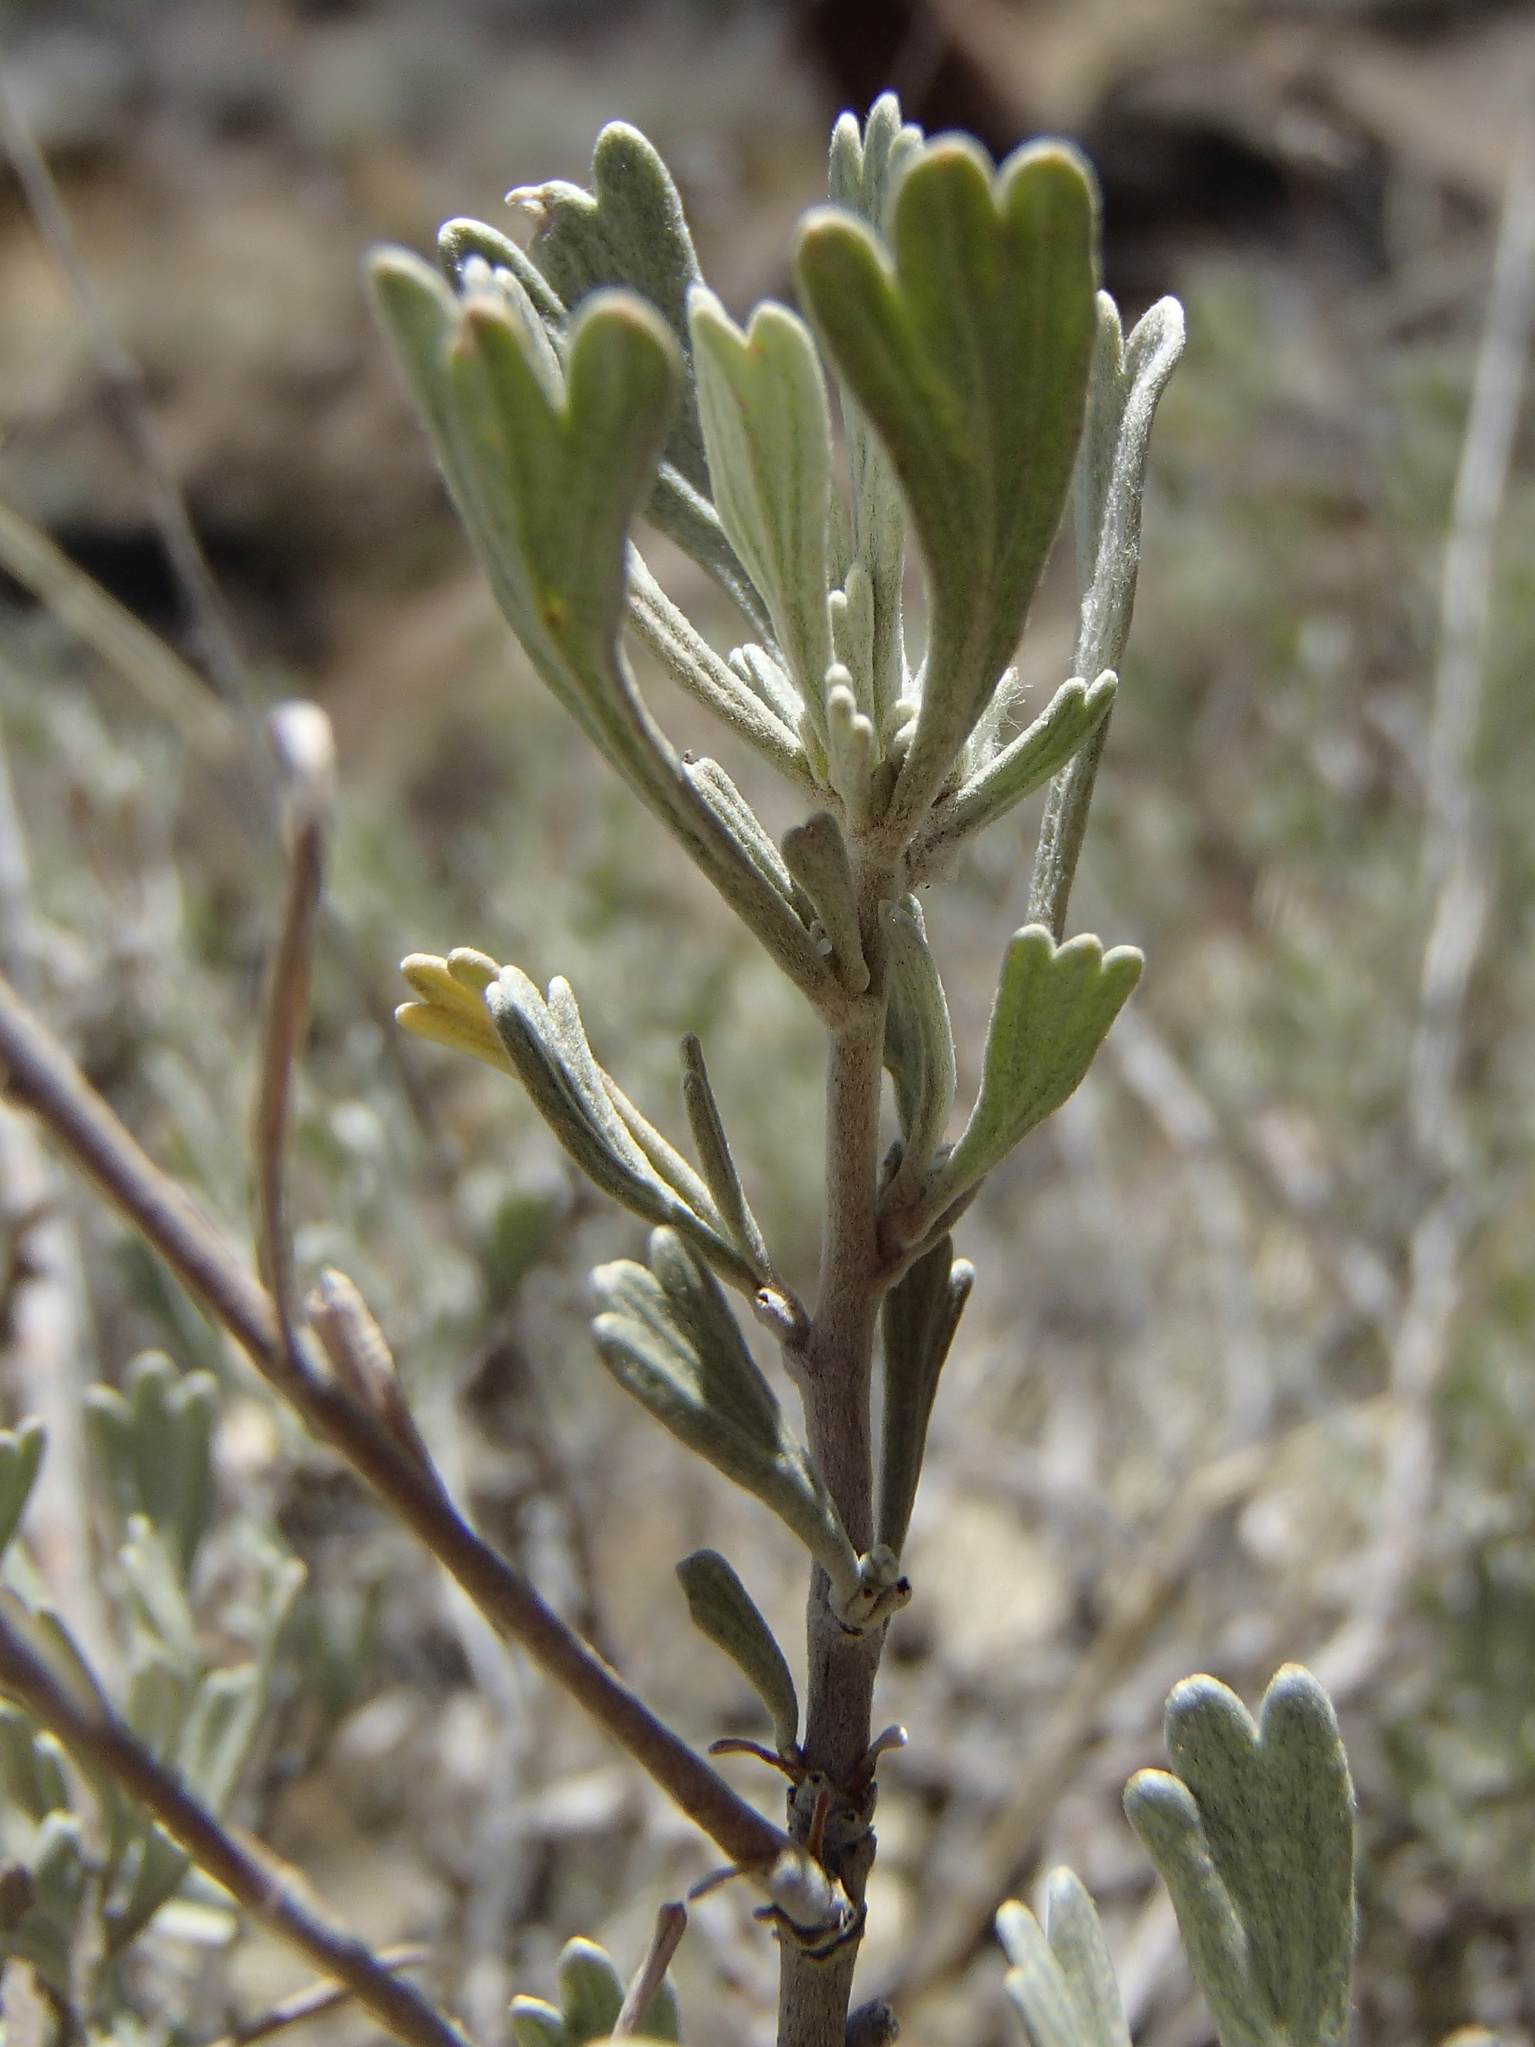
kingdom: Plantae
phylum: Tracheophyta
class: Magnoliopsida
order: Asterales
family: Asteraceae
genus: Artemisia
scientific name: Artemisia arbuscula
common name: Sagebrush
